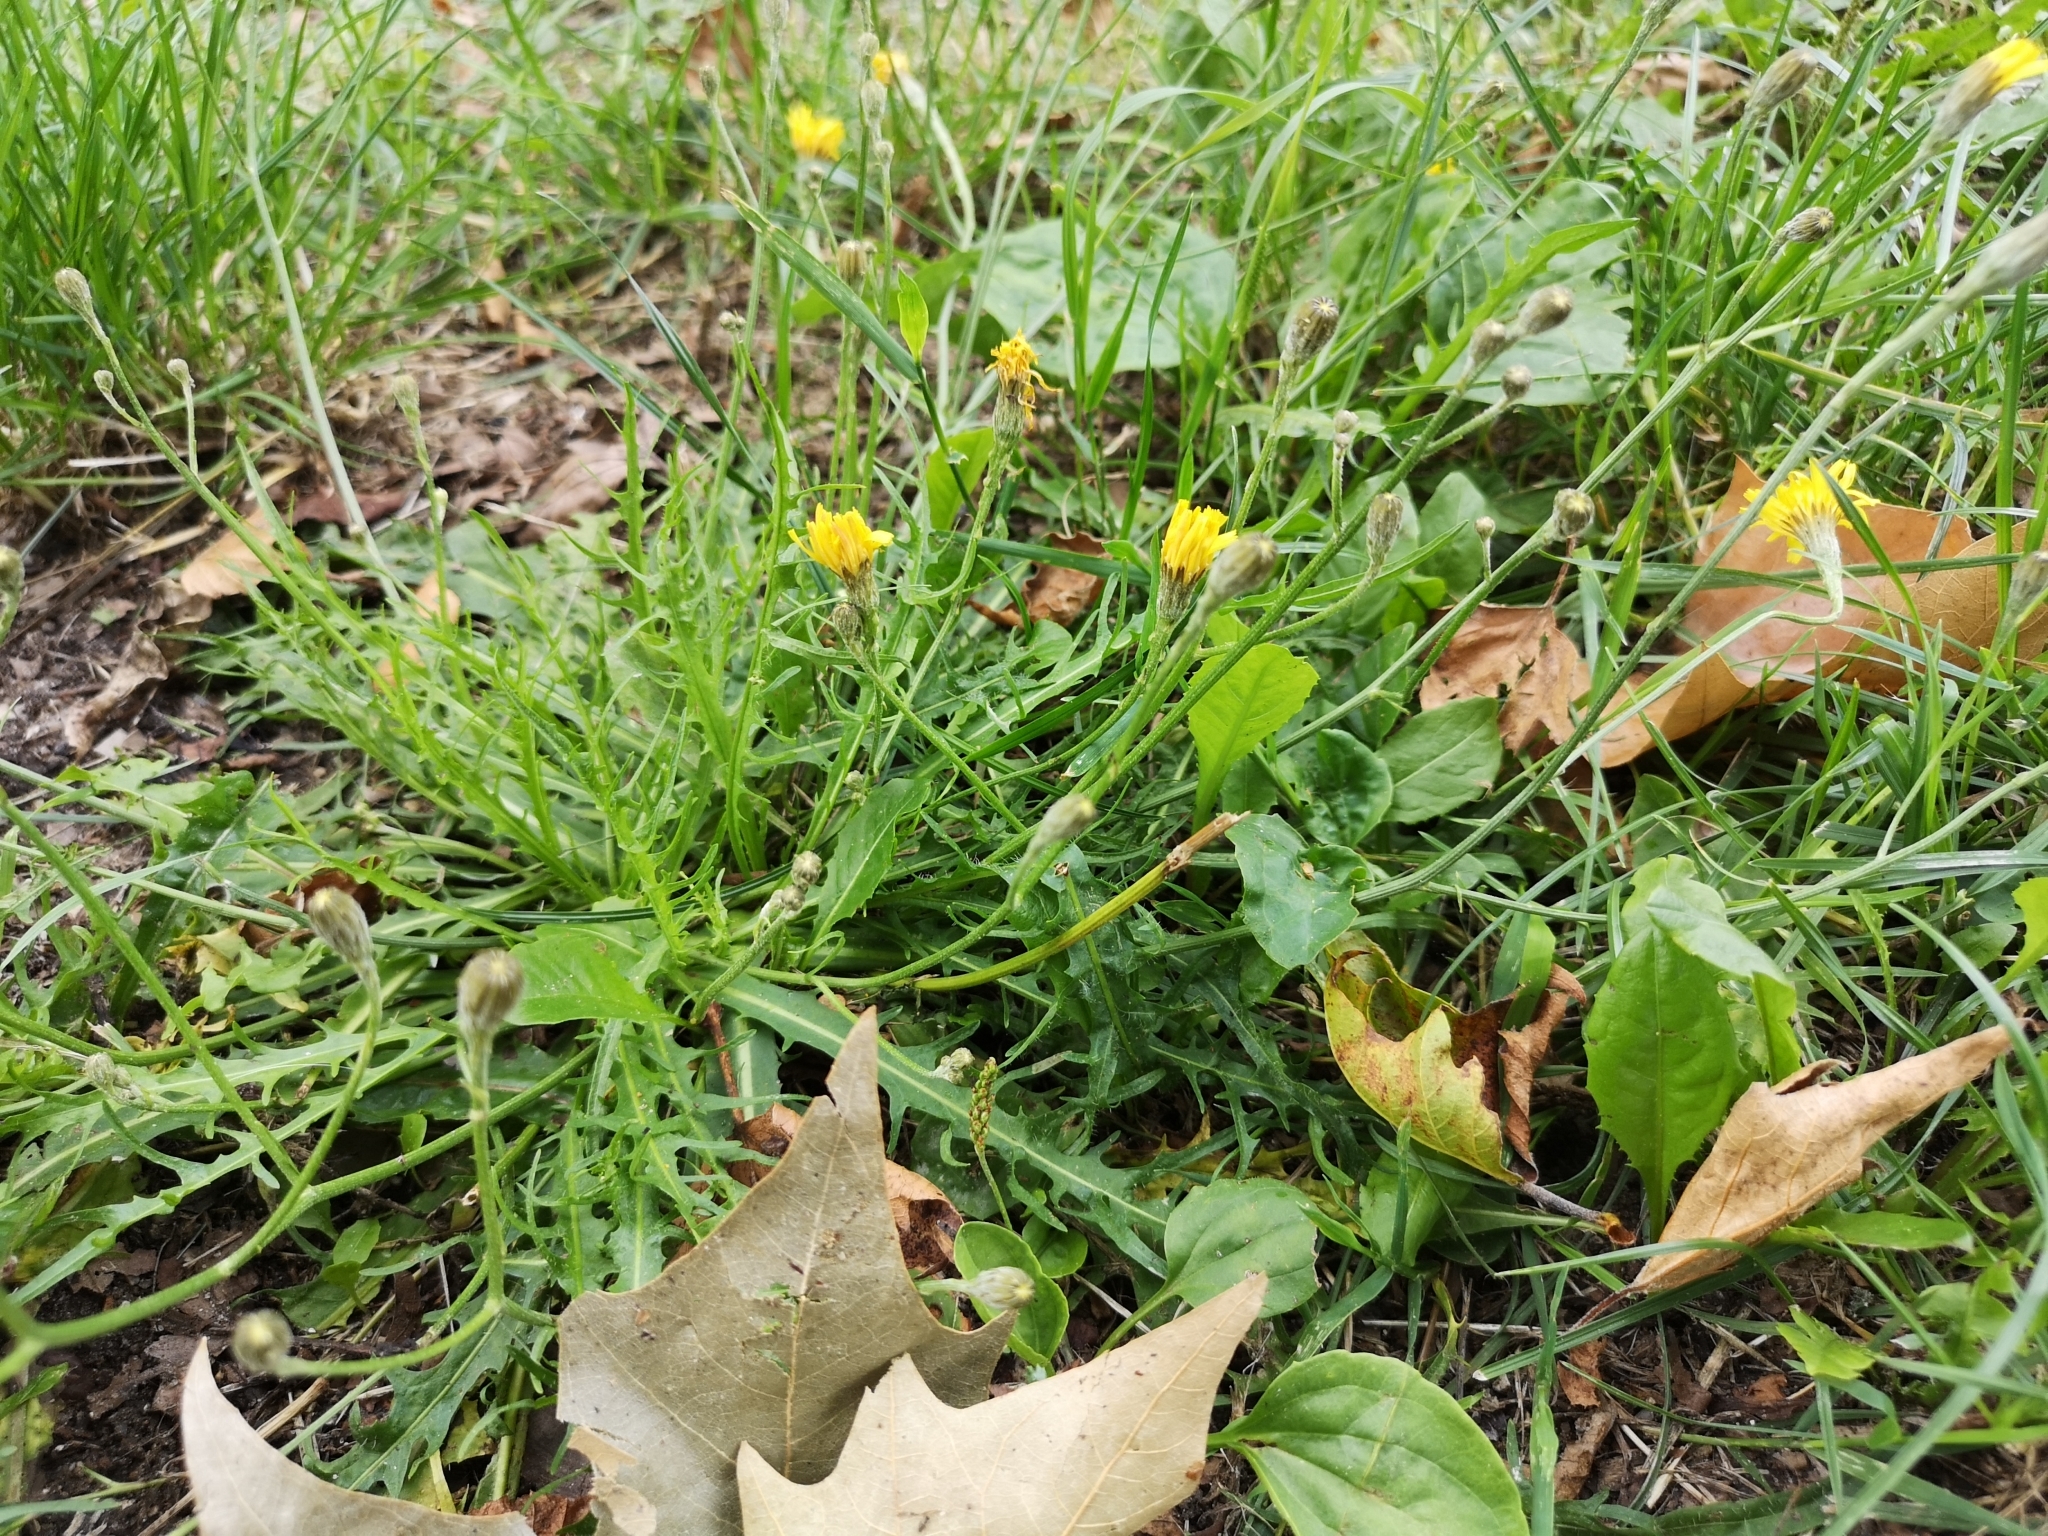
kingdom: Plantae
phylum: Tracheophyta
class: Magnoliopsida
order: Asterales
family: Asteraceae
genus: Scorzoneroides
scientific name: Scorzoneroides autumnalis
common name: Autumn hawkbit
